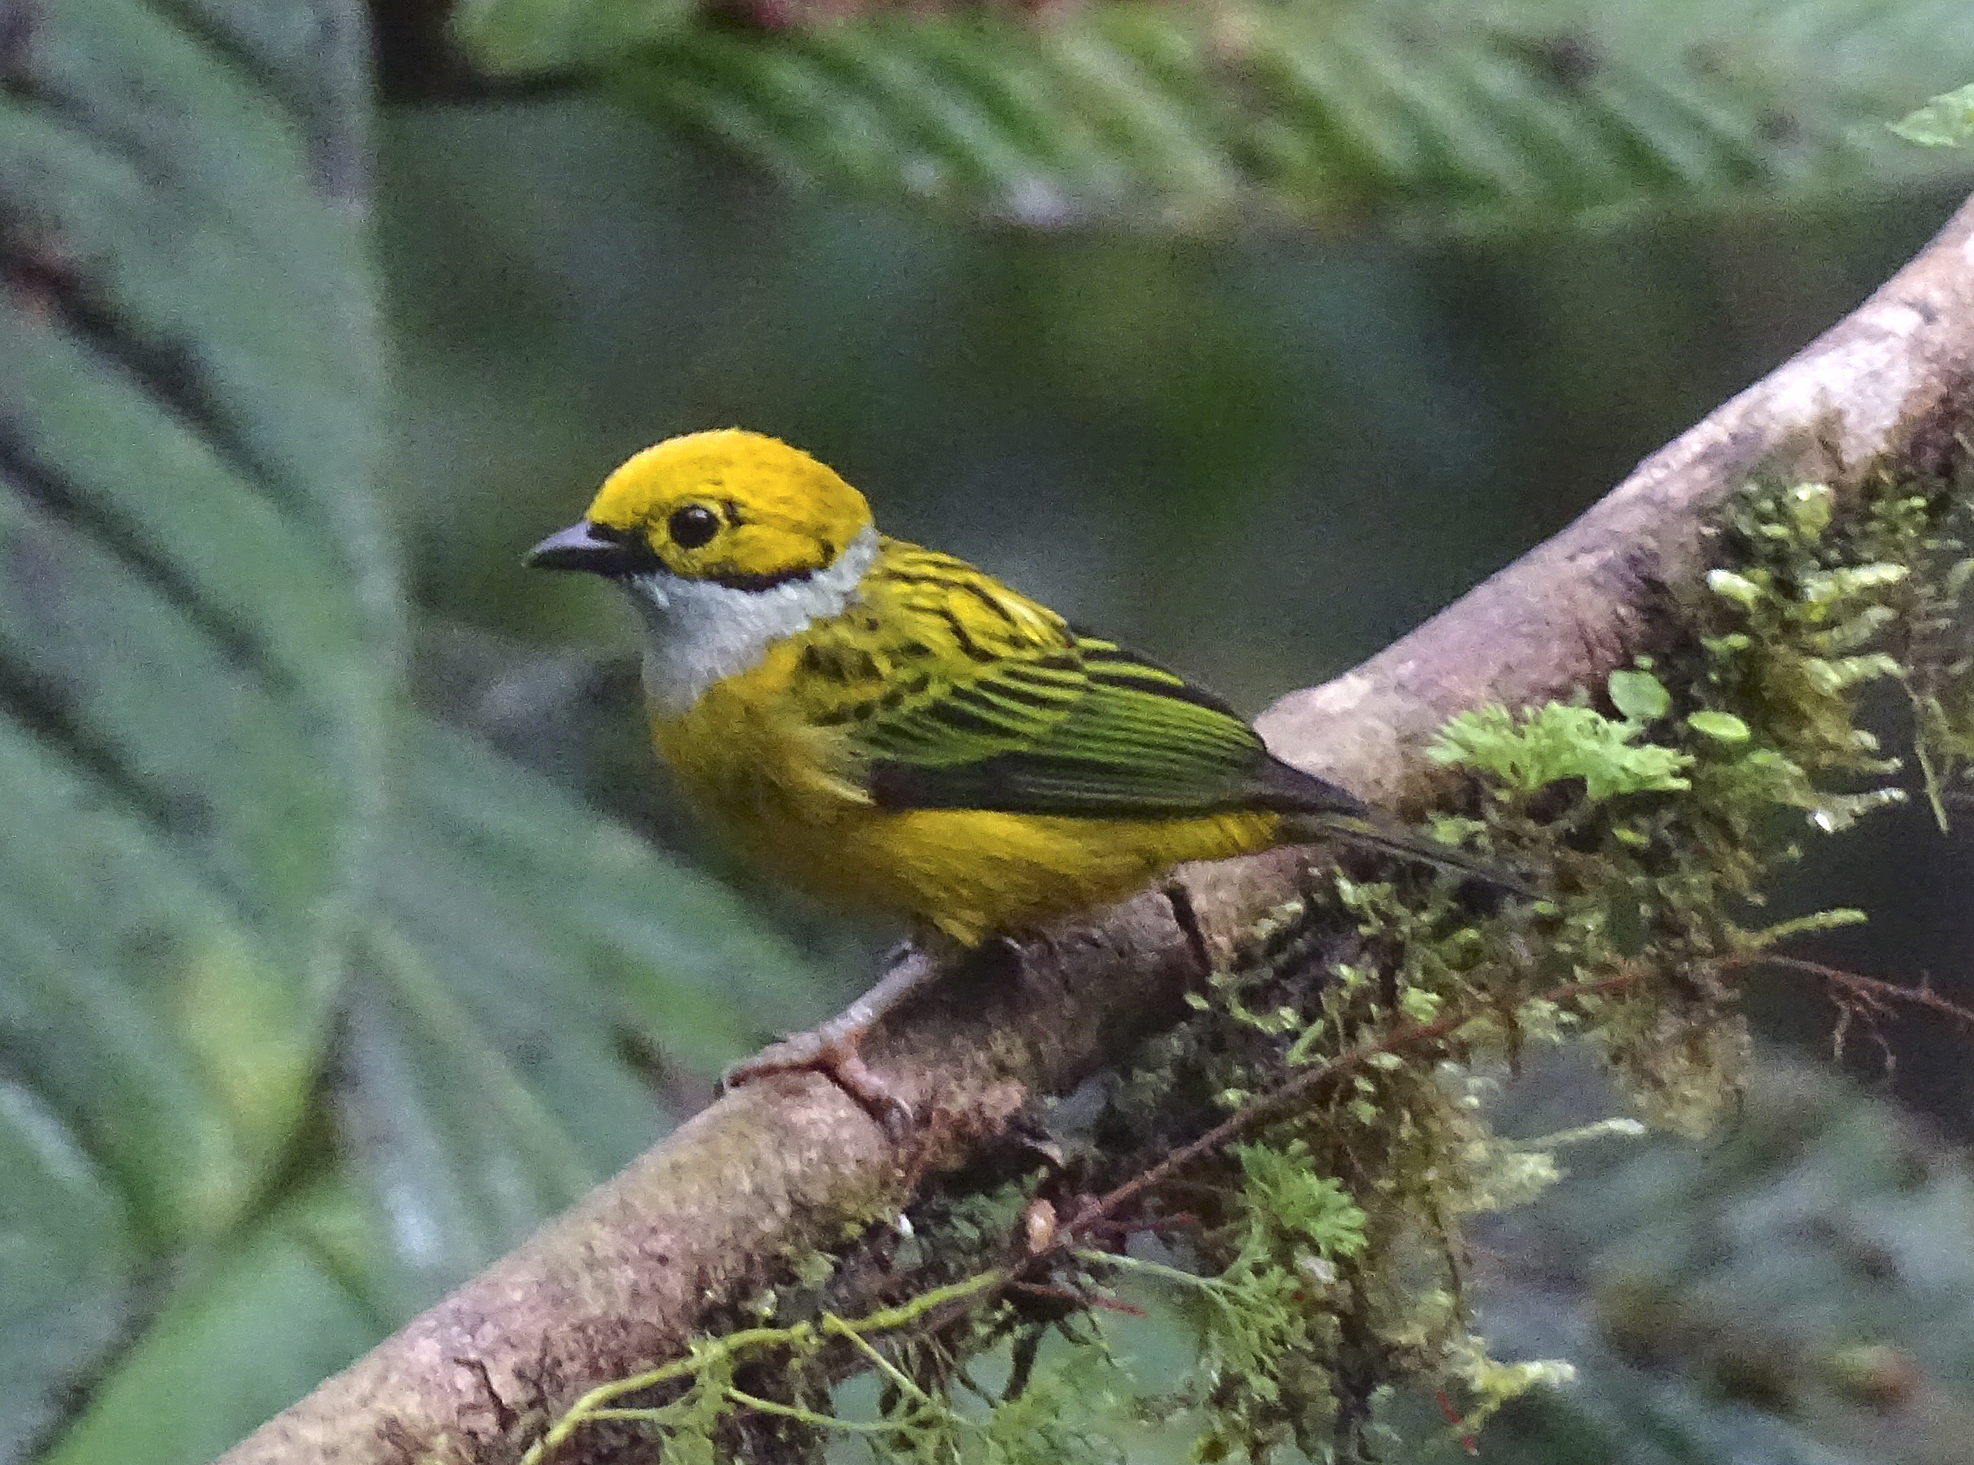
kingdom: Animalia
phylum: Chordata
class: Aves
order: Passeriformes
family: Thraupidae
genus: Tangara
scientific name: Tangara icterocephala
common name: Silver-throated tanager
